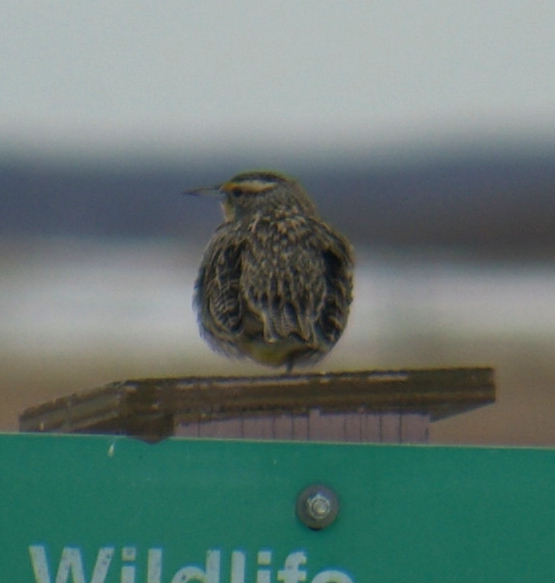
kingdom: Animalia
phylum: Chordata
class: Aves
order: Passeriformes
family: Icteridae
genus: Sturnella
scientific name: Sturnella neglecta
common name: Western meadowlark
